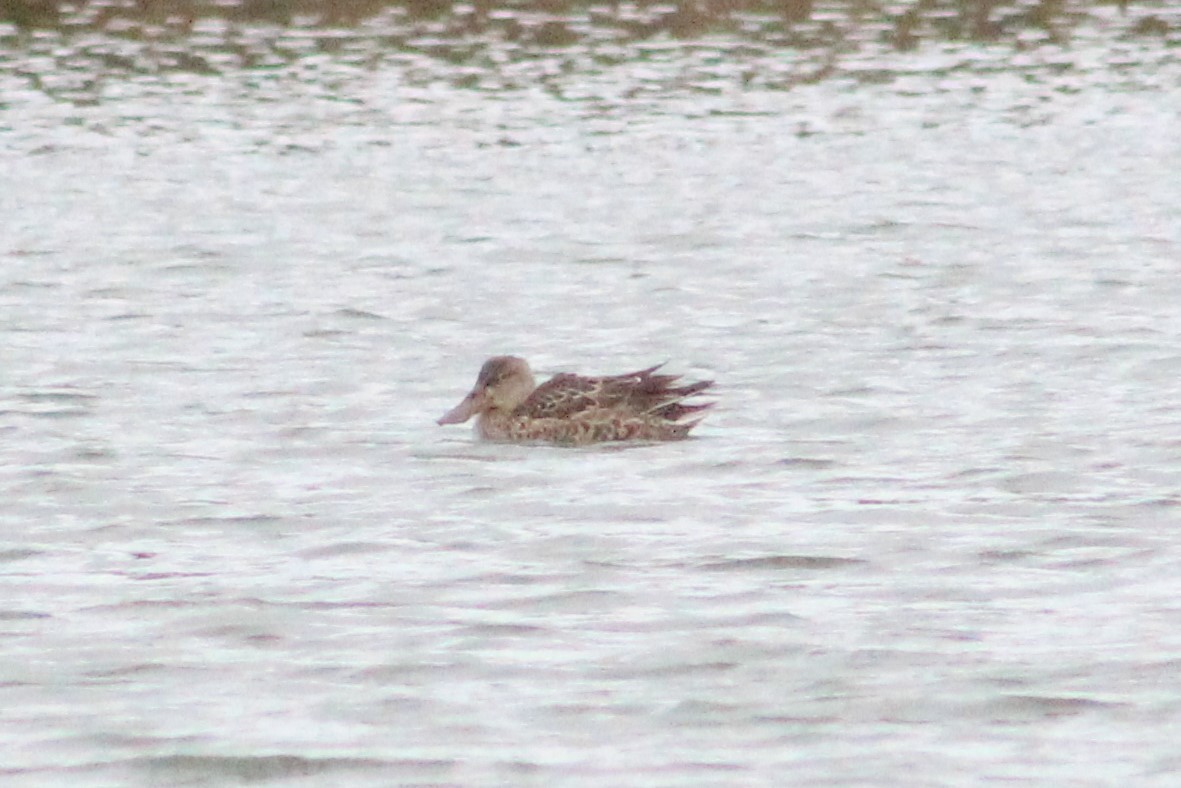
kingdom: Animalia
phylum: Chordata
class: Aves
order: Anseriformes
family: Anatidae
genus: Spatula
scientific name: Spatula clypeata
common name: Northern shoveler
